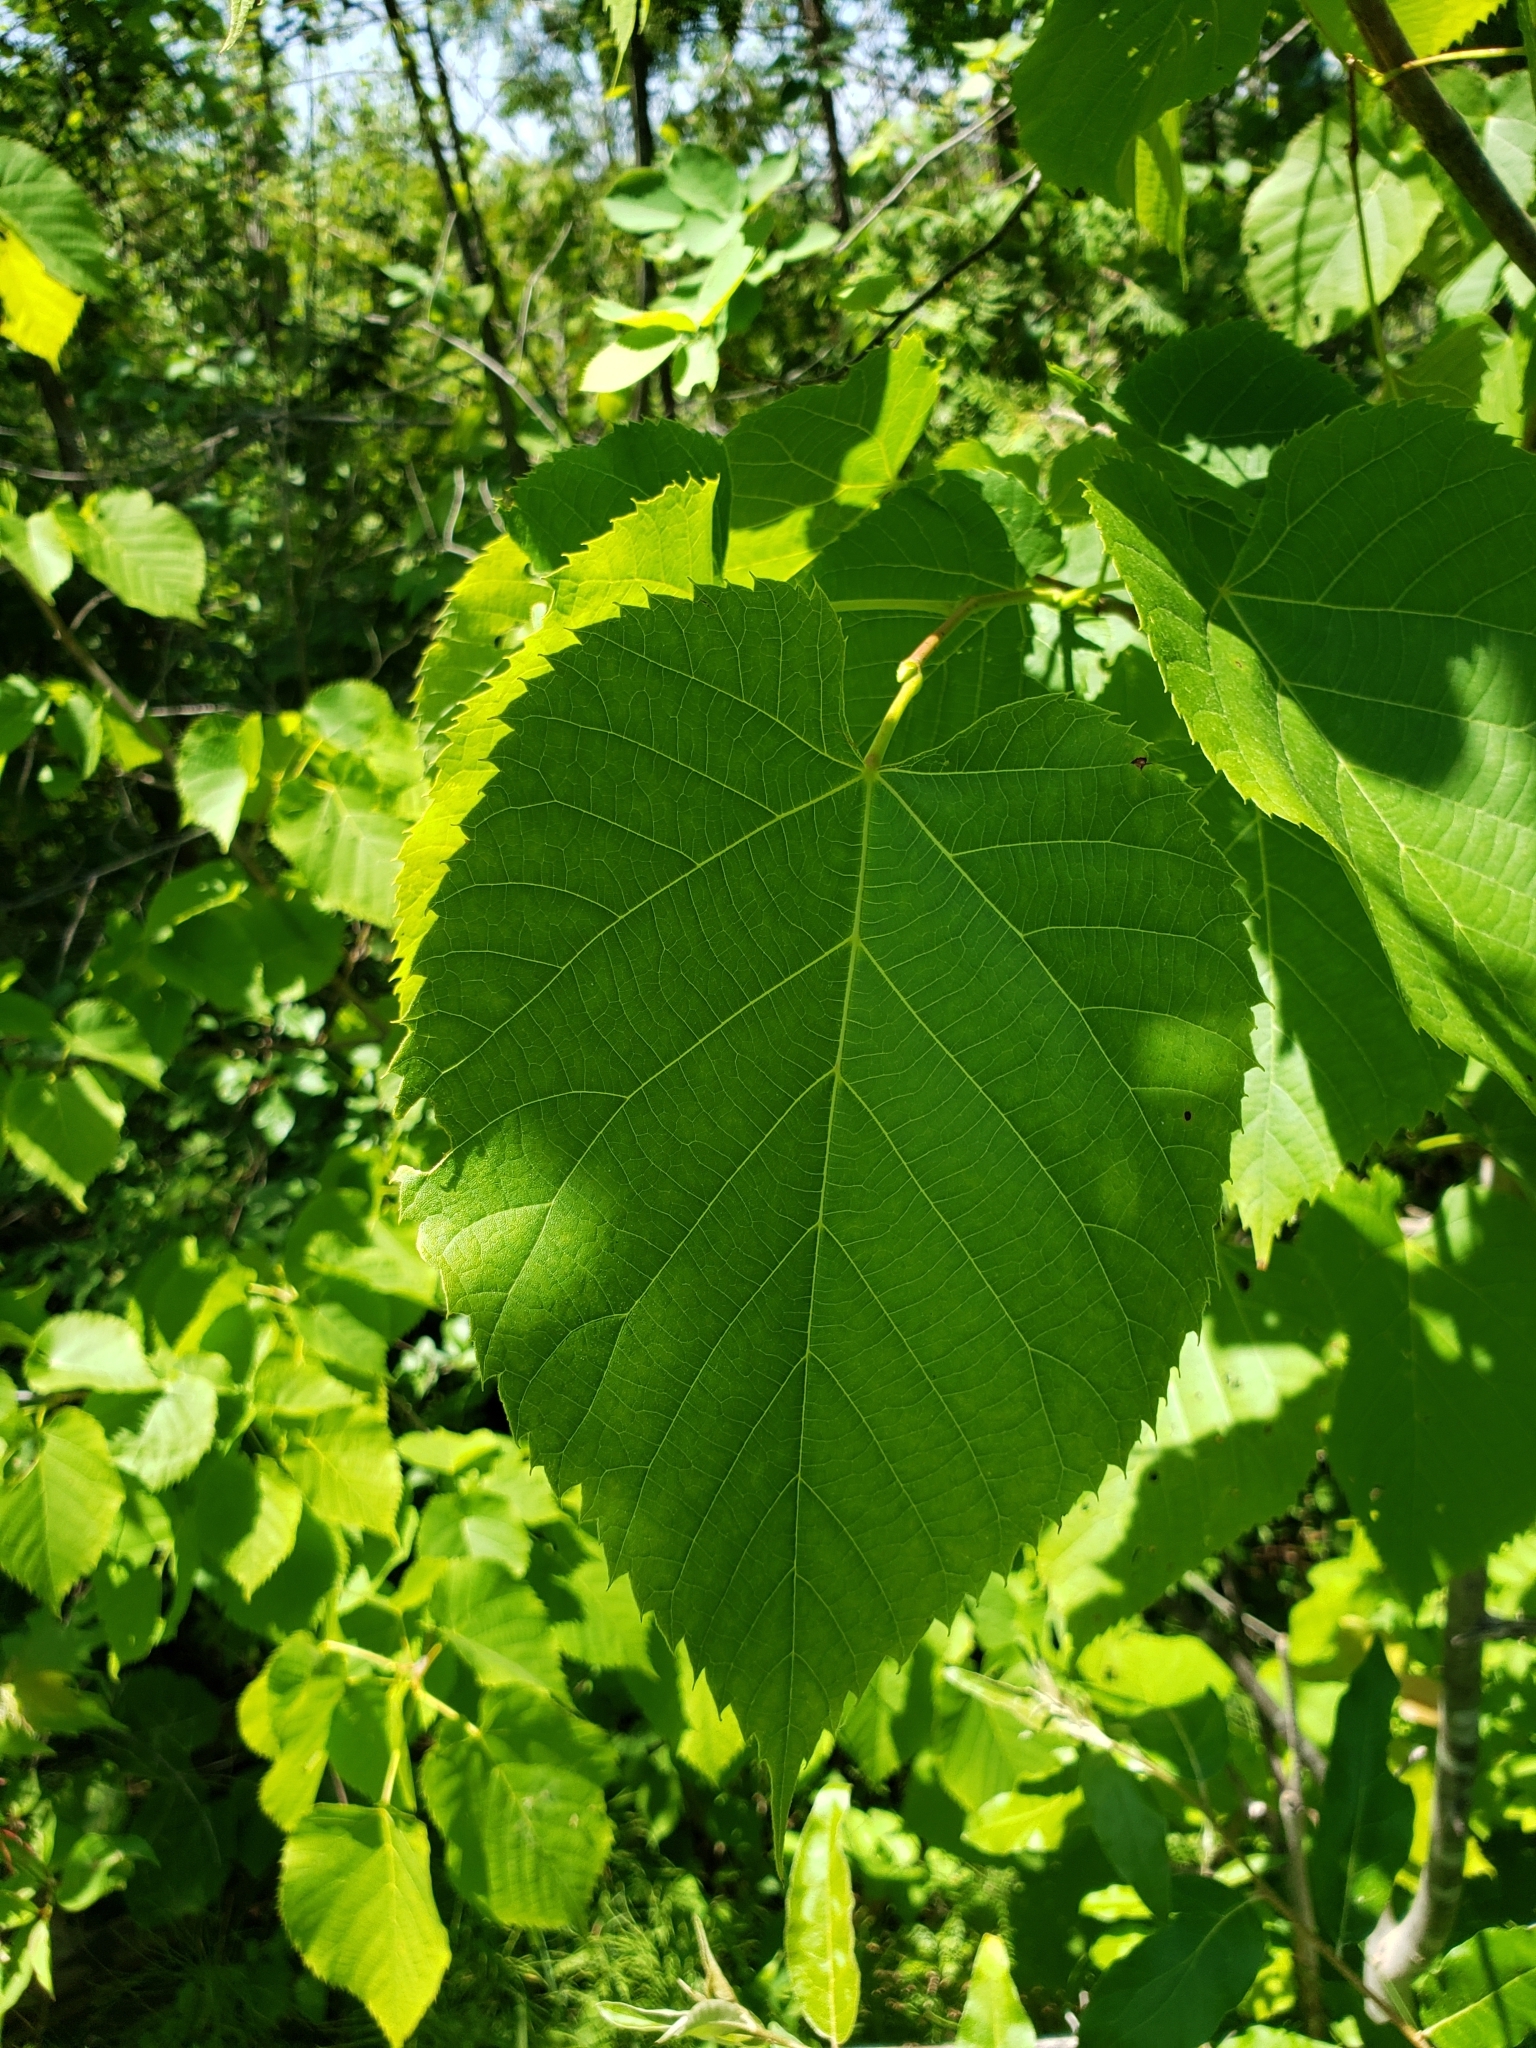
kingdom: Plantae
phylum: Tracheophyta
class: Magnoliopsida
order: Malvales
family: Malvaceae
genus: Tilia
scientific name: Tilia americana
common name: Basswood
